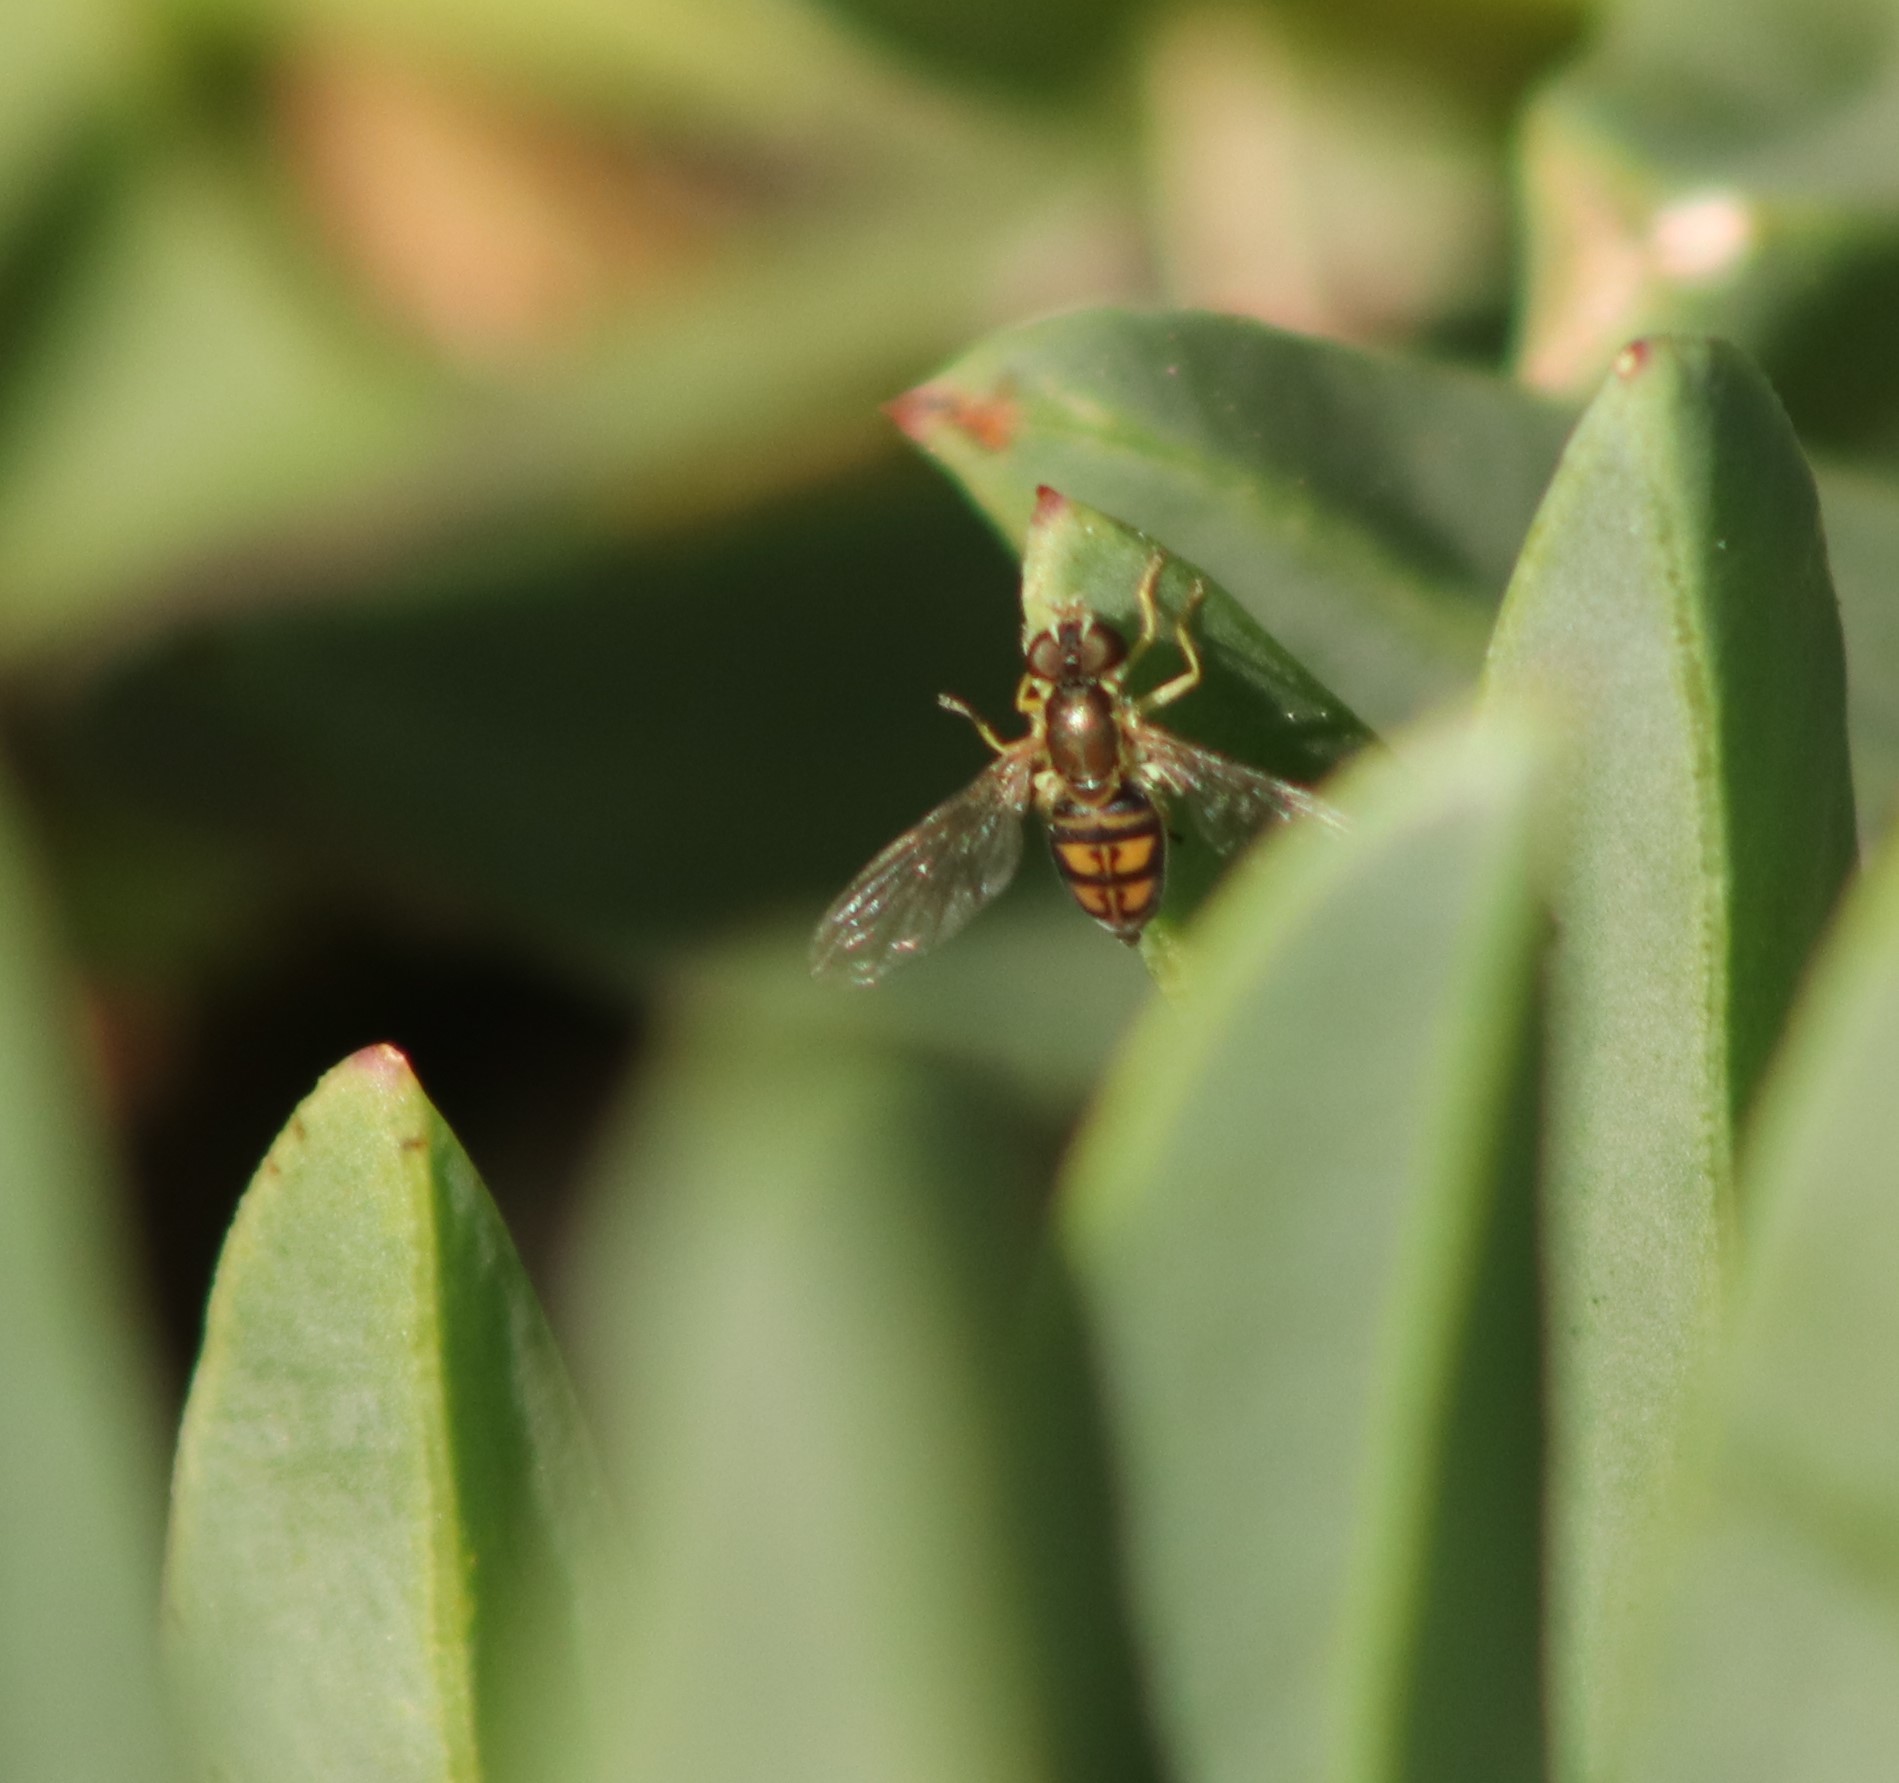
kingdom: Animalia
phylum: Arthropoda
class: Insecta
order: Diptera
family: Syrphidae
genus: Toxomerus
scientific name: Toxomerus marginatus
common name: Syrphid fly
